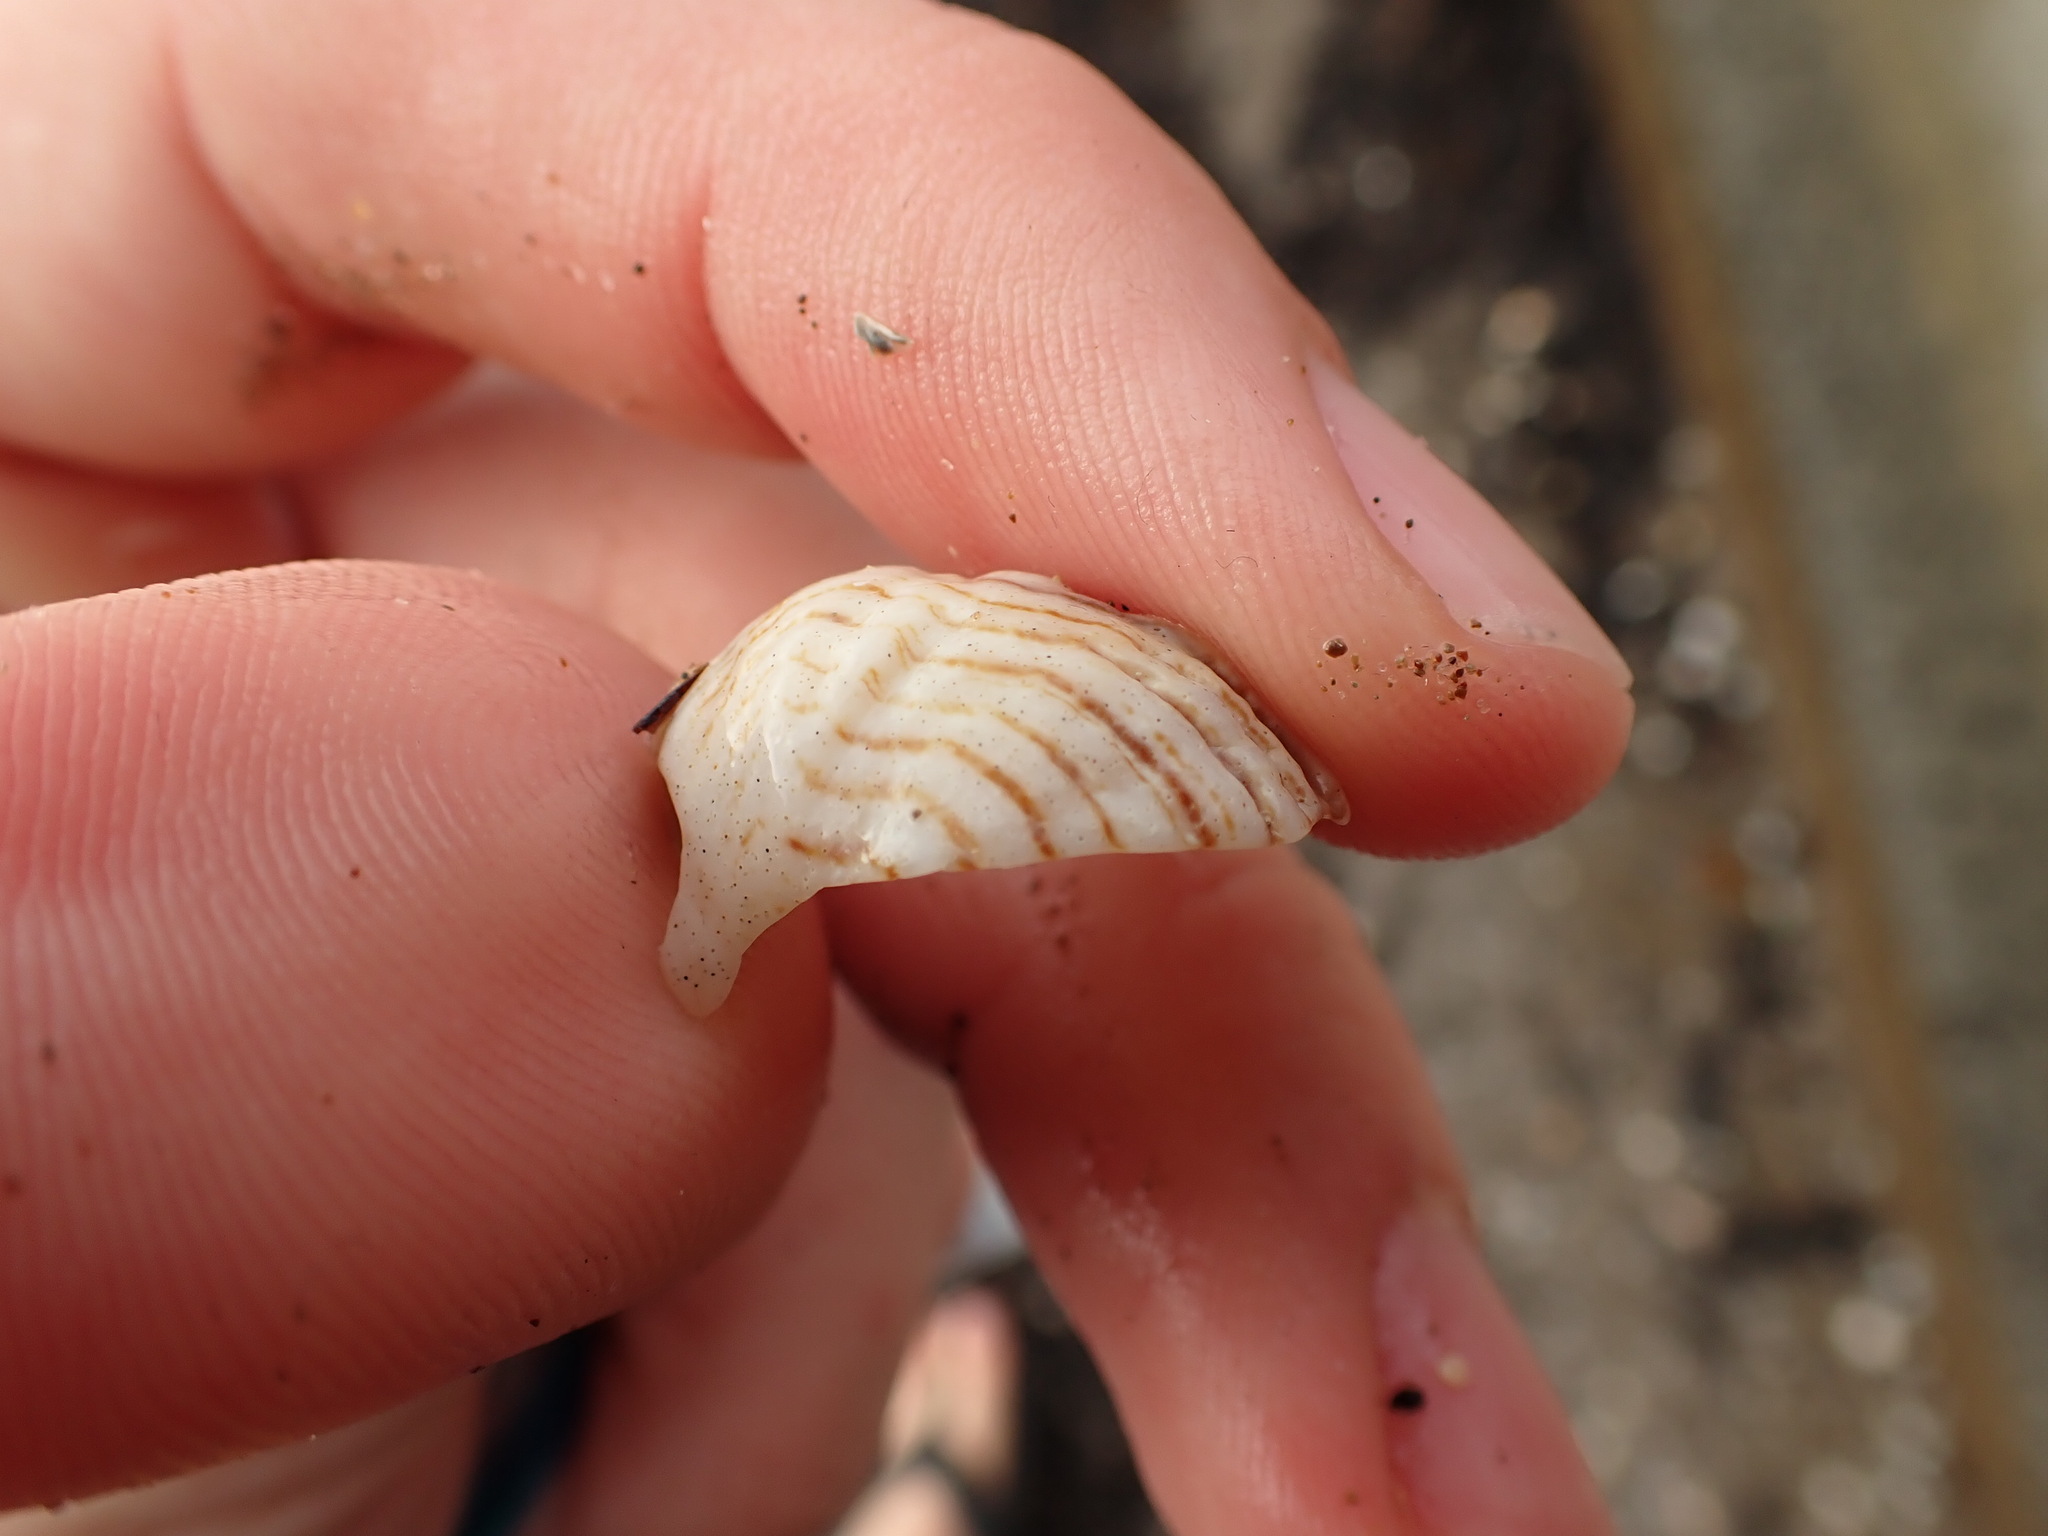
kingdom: Animalia
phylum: Mollusca
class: Gastropoda
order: Littorinimorpha
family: Calyptraeidae
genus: Maoricrypta
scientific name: Maoricrypta costata
